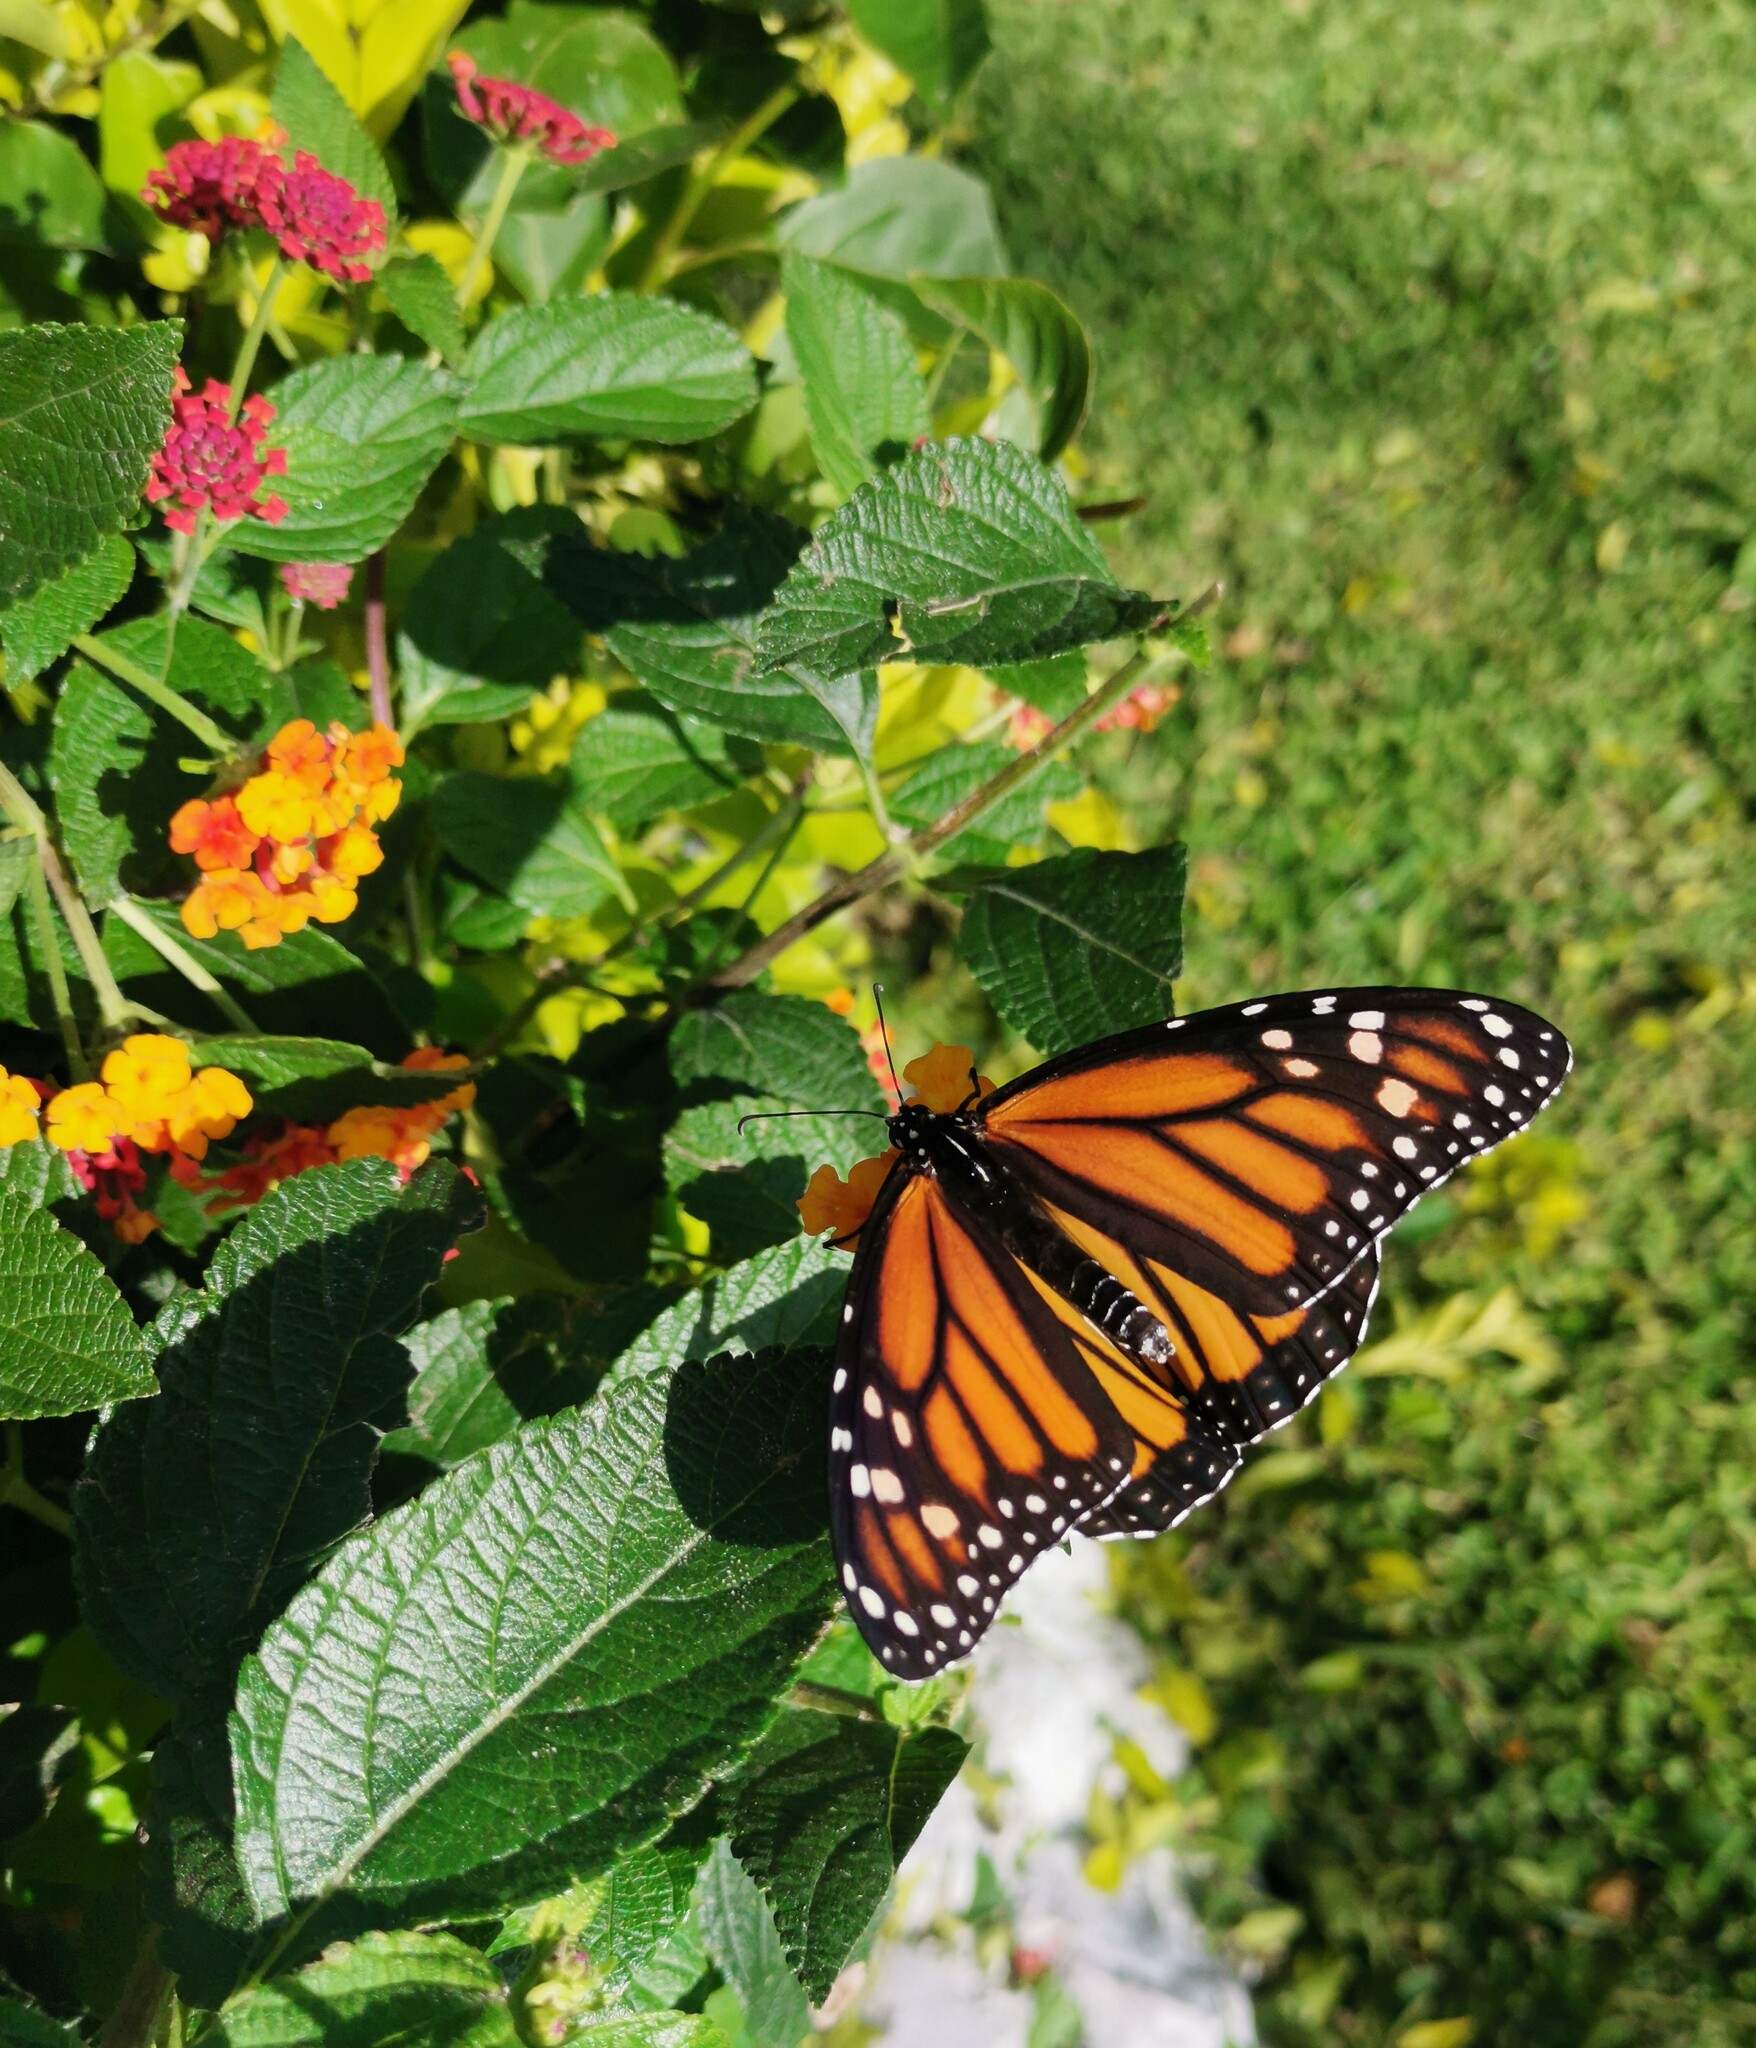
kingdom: Animalia
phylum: Arthropoda
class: Insecta
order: Lepidoptera
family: Nymphalidae
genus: Danaus
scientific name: Danaus plexippus
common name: Monarch
